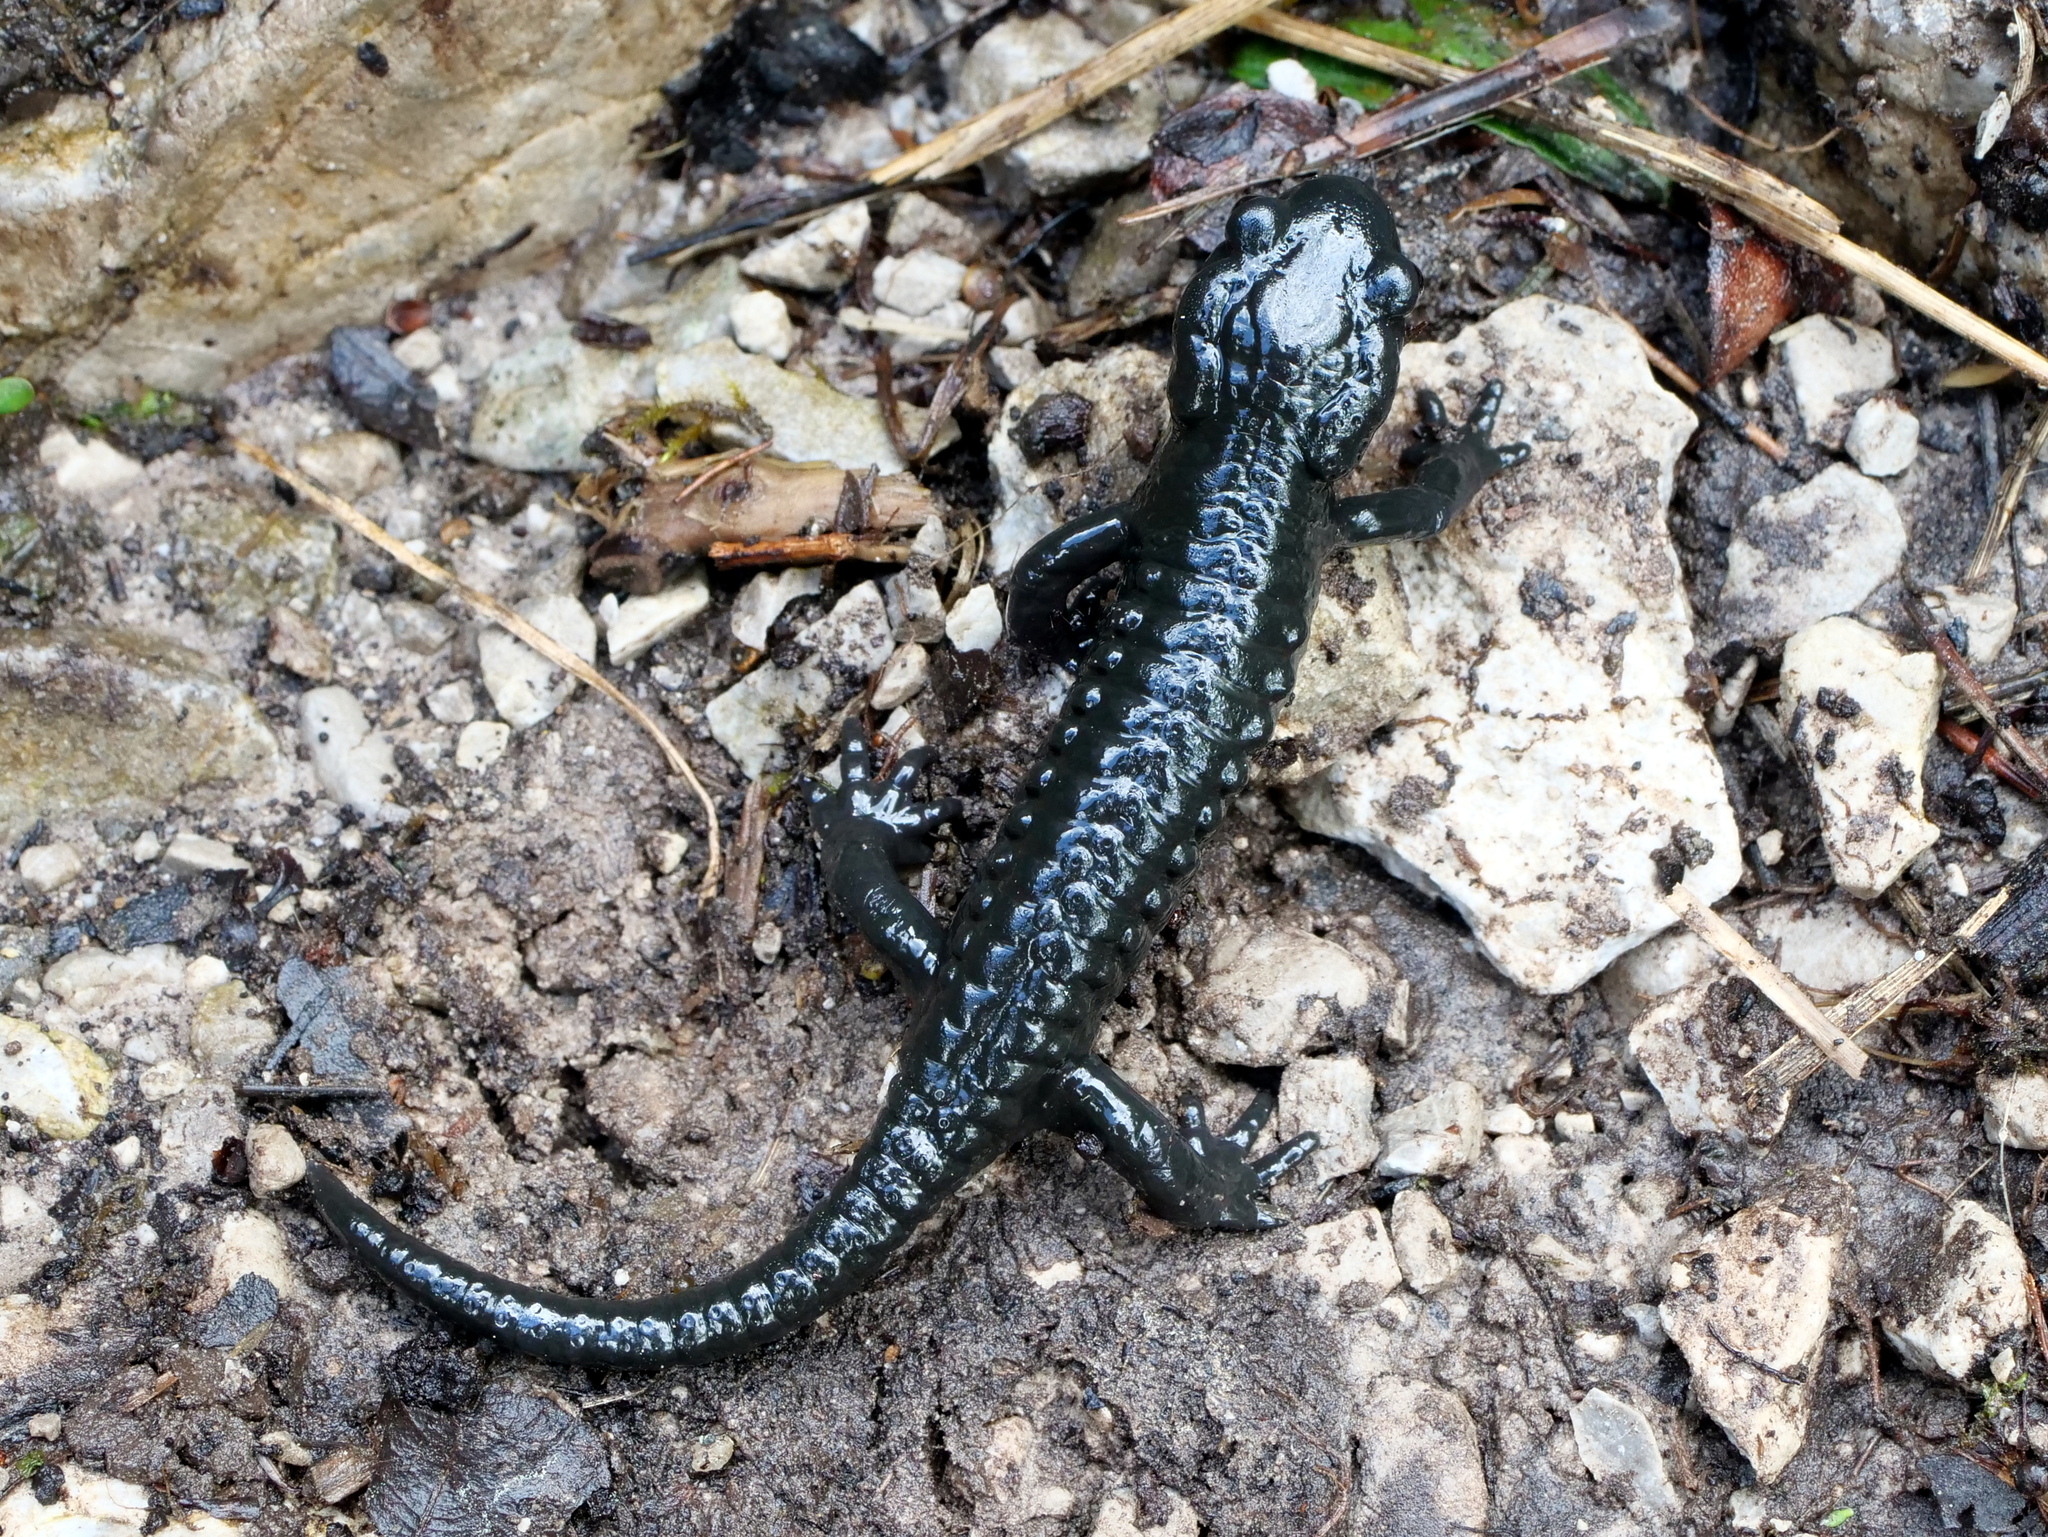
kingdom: Animalia
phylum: Chordata
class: Amphibia
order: Caudata
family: Salamandridae
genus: Salamandra
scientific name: Salamandra atra
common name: Alpine salamander
